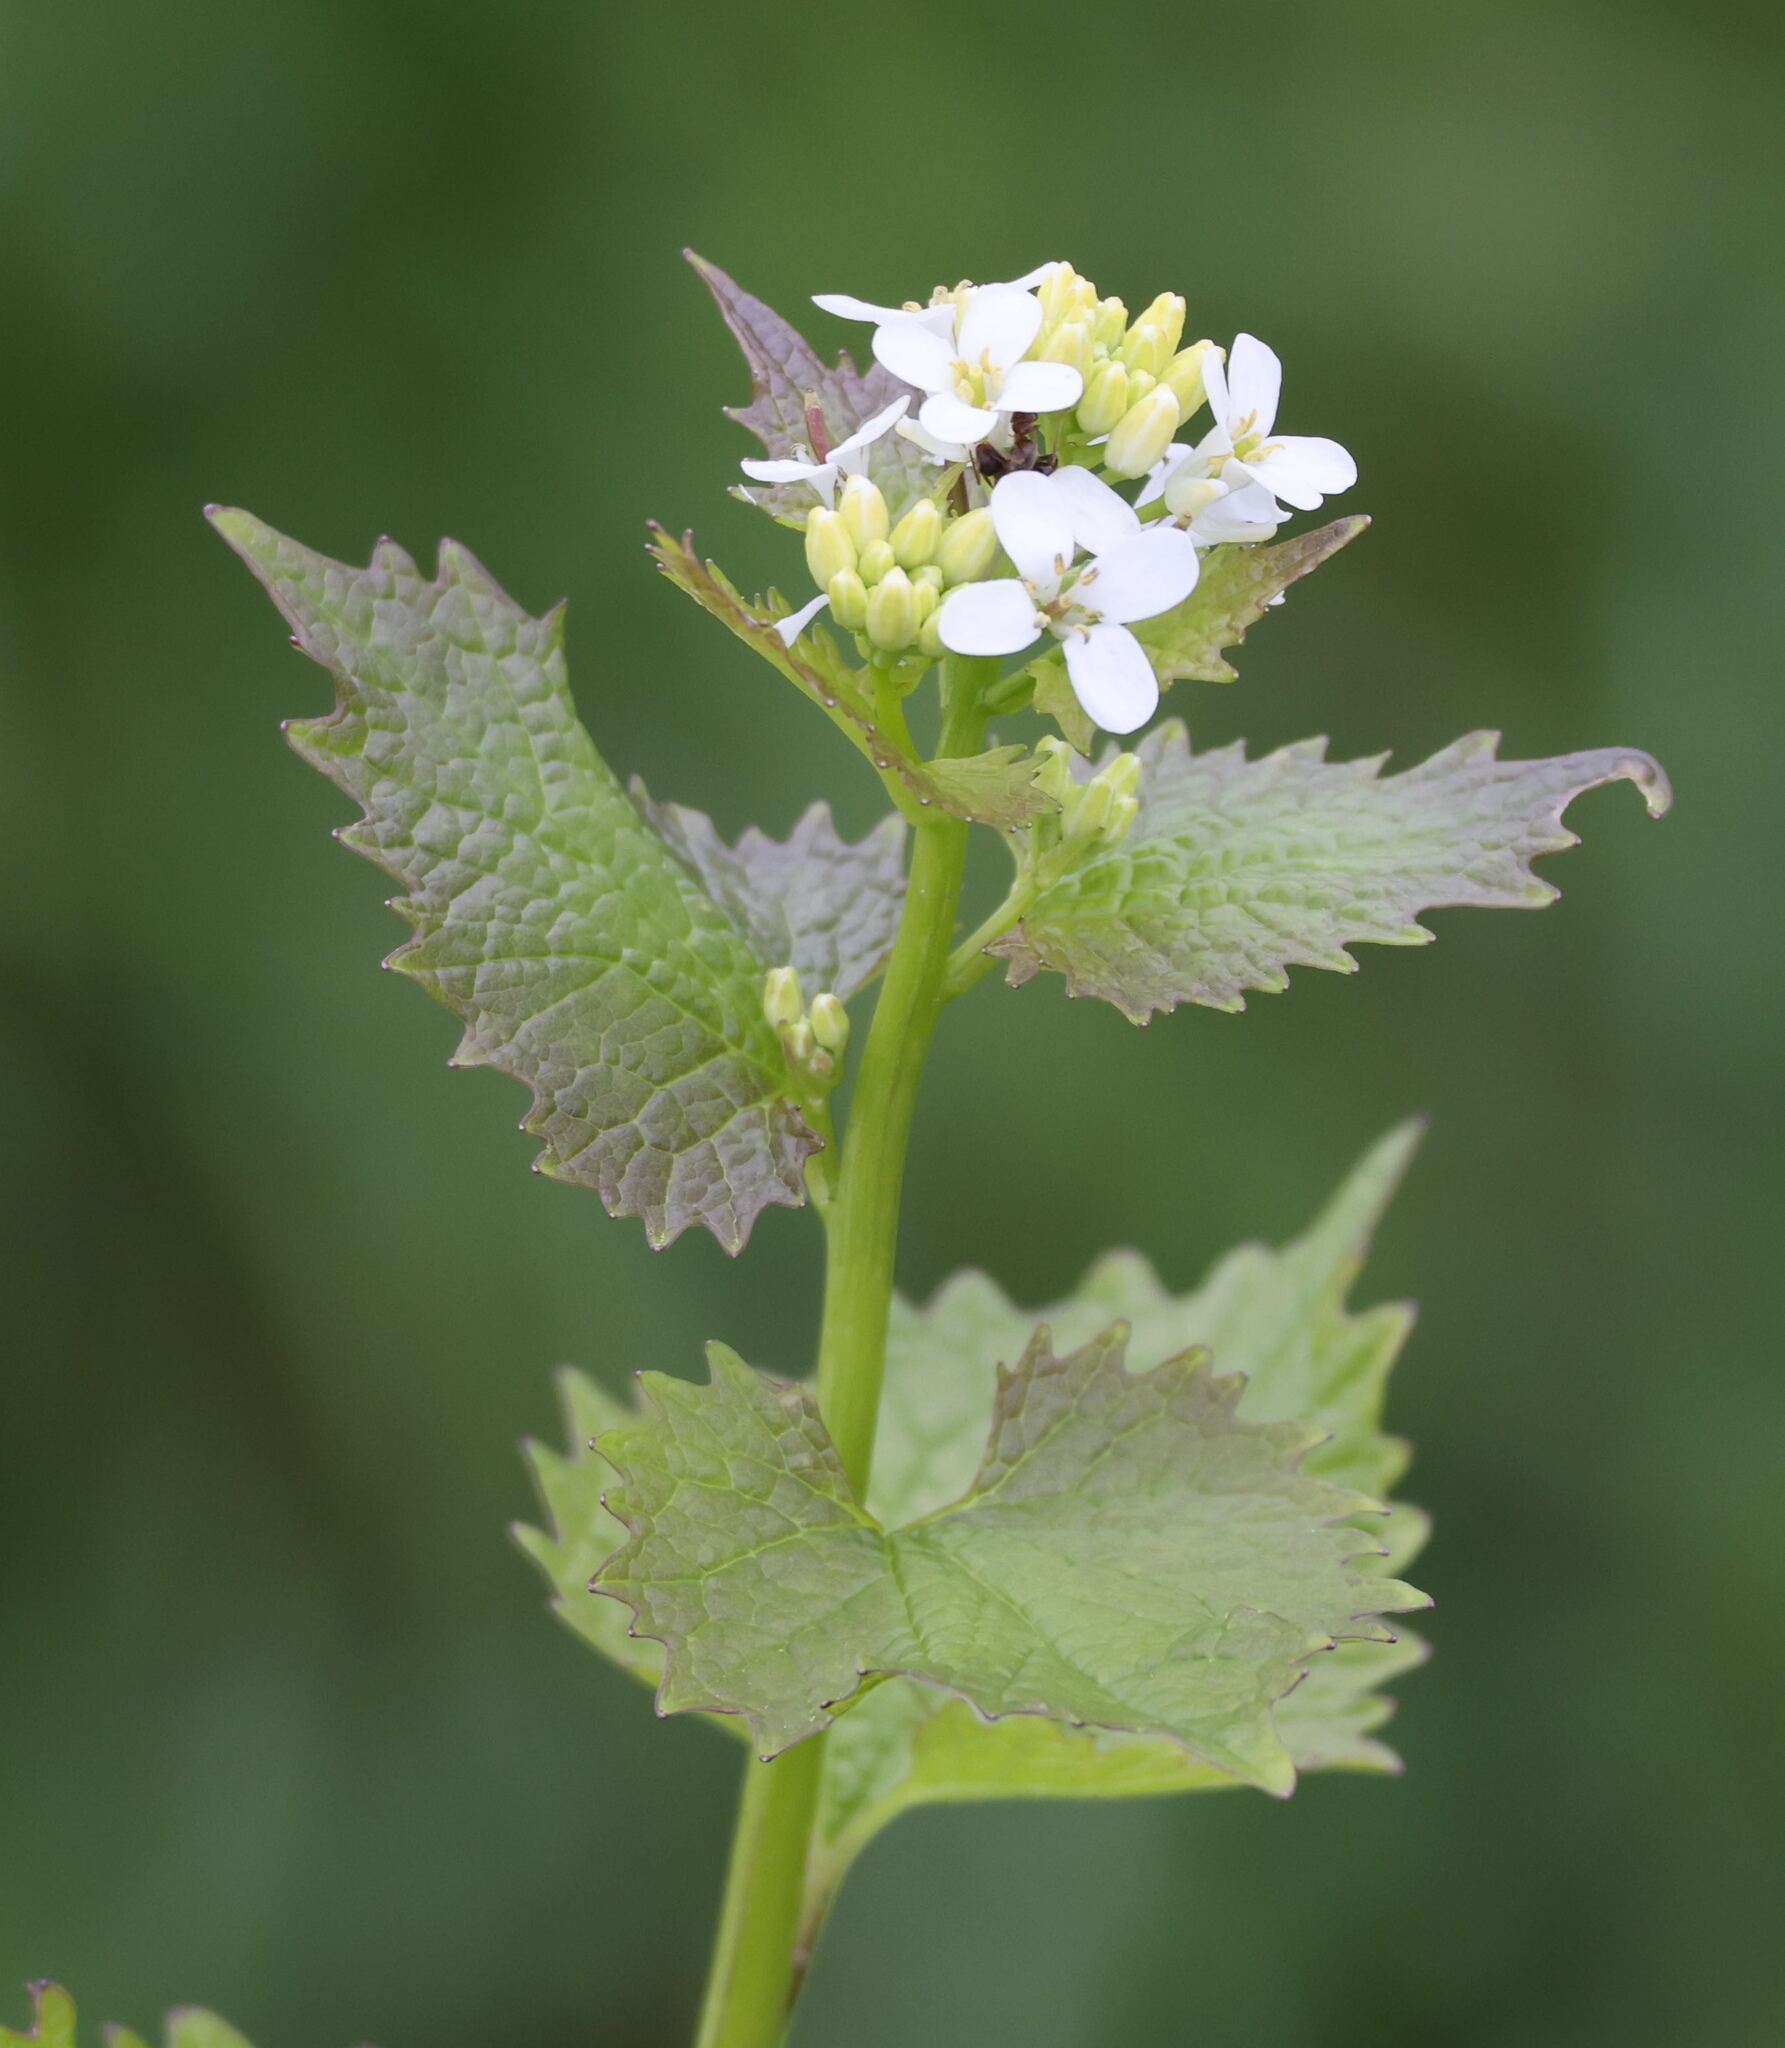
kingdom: Plantae
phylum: Tracheophyta
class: Magnoliopsida
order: Brassicales
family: Brassicaceae
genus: Alliaria
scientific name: Alliaria petiolata
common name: Garlic mustard
